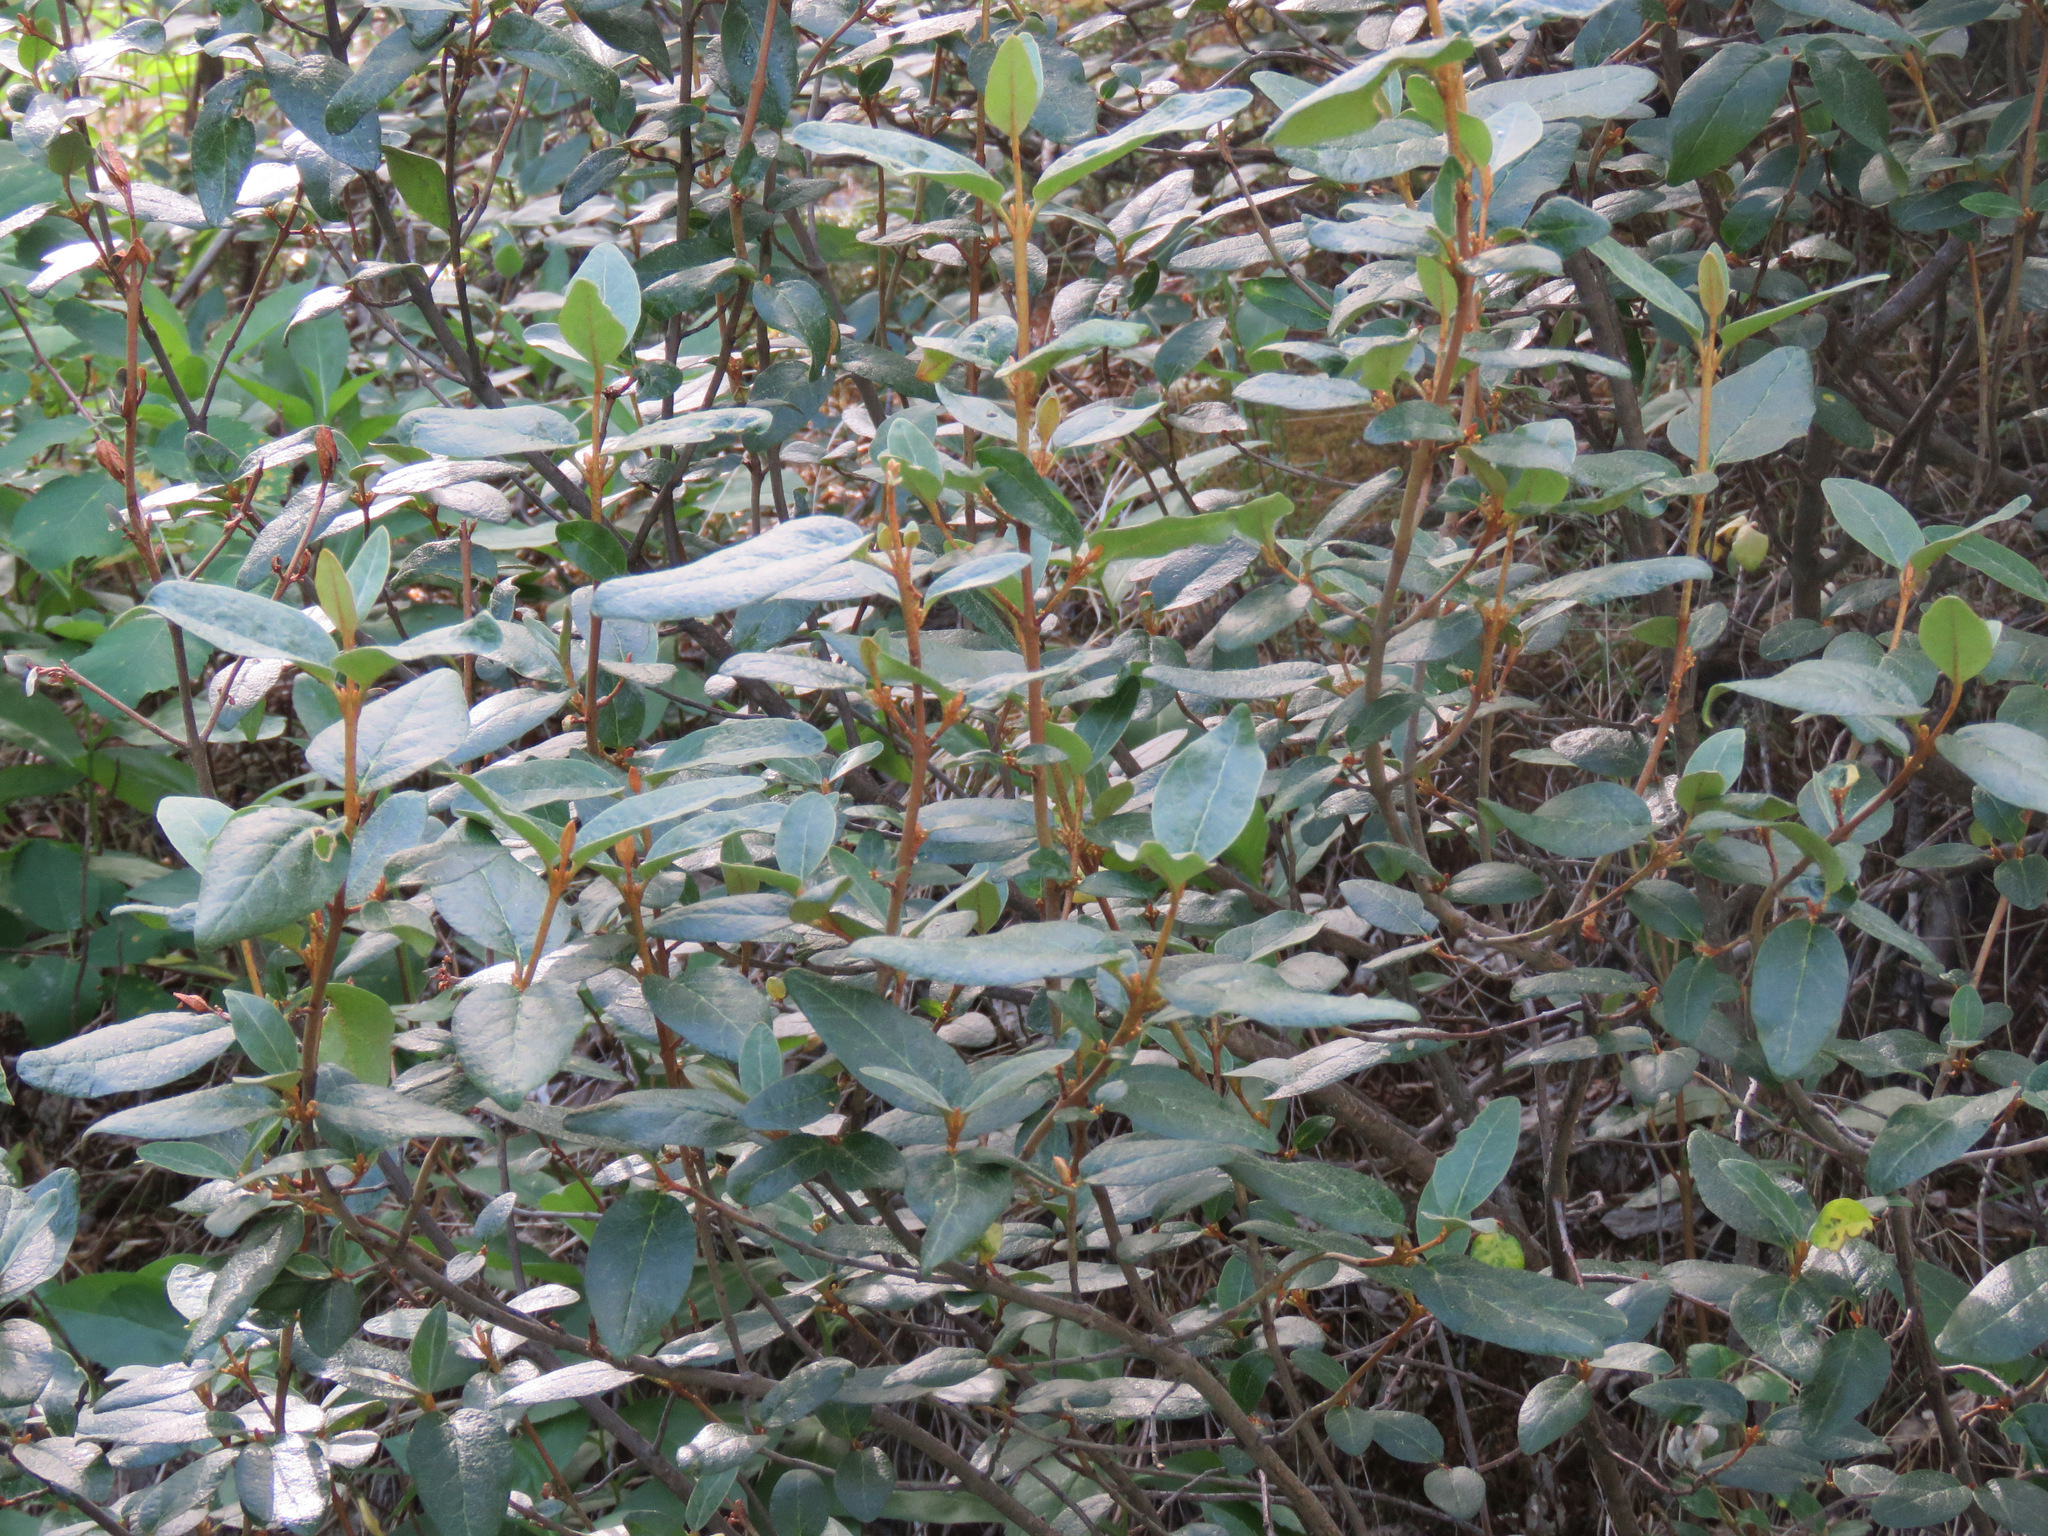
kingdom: Plantae
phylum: Tracheophyta
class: Magnoliopsida
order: Rosales
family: Elaeagnaceae
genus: Shepherdia
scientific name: Shepherdia canadensis
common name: Soapberry
